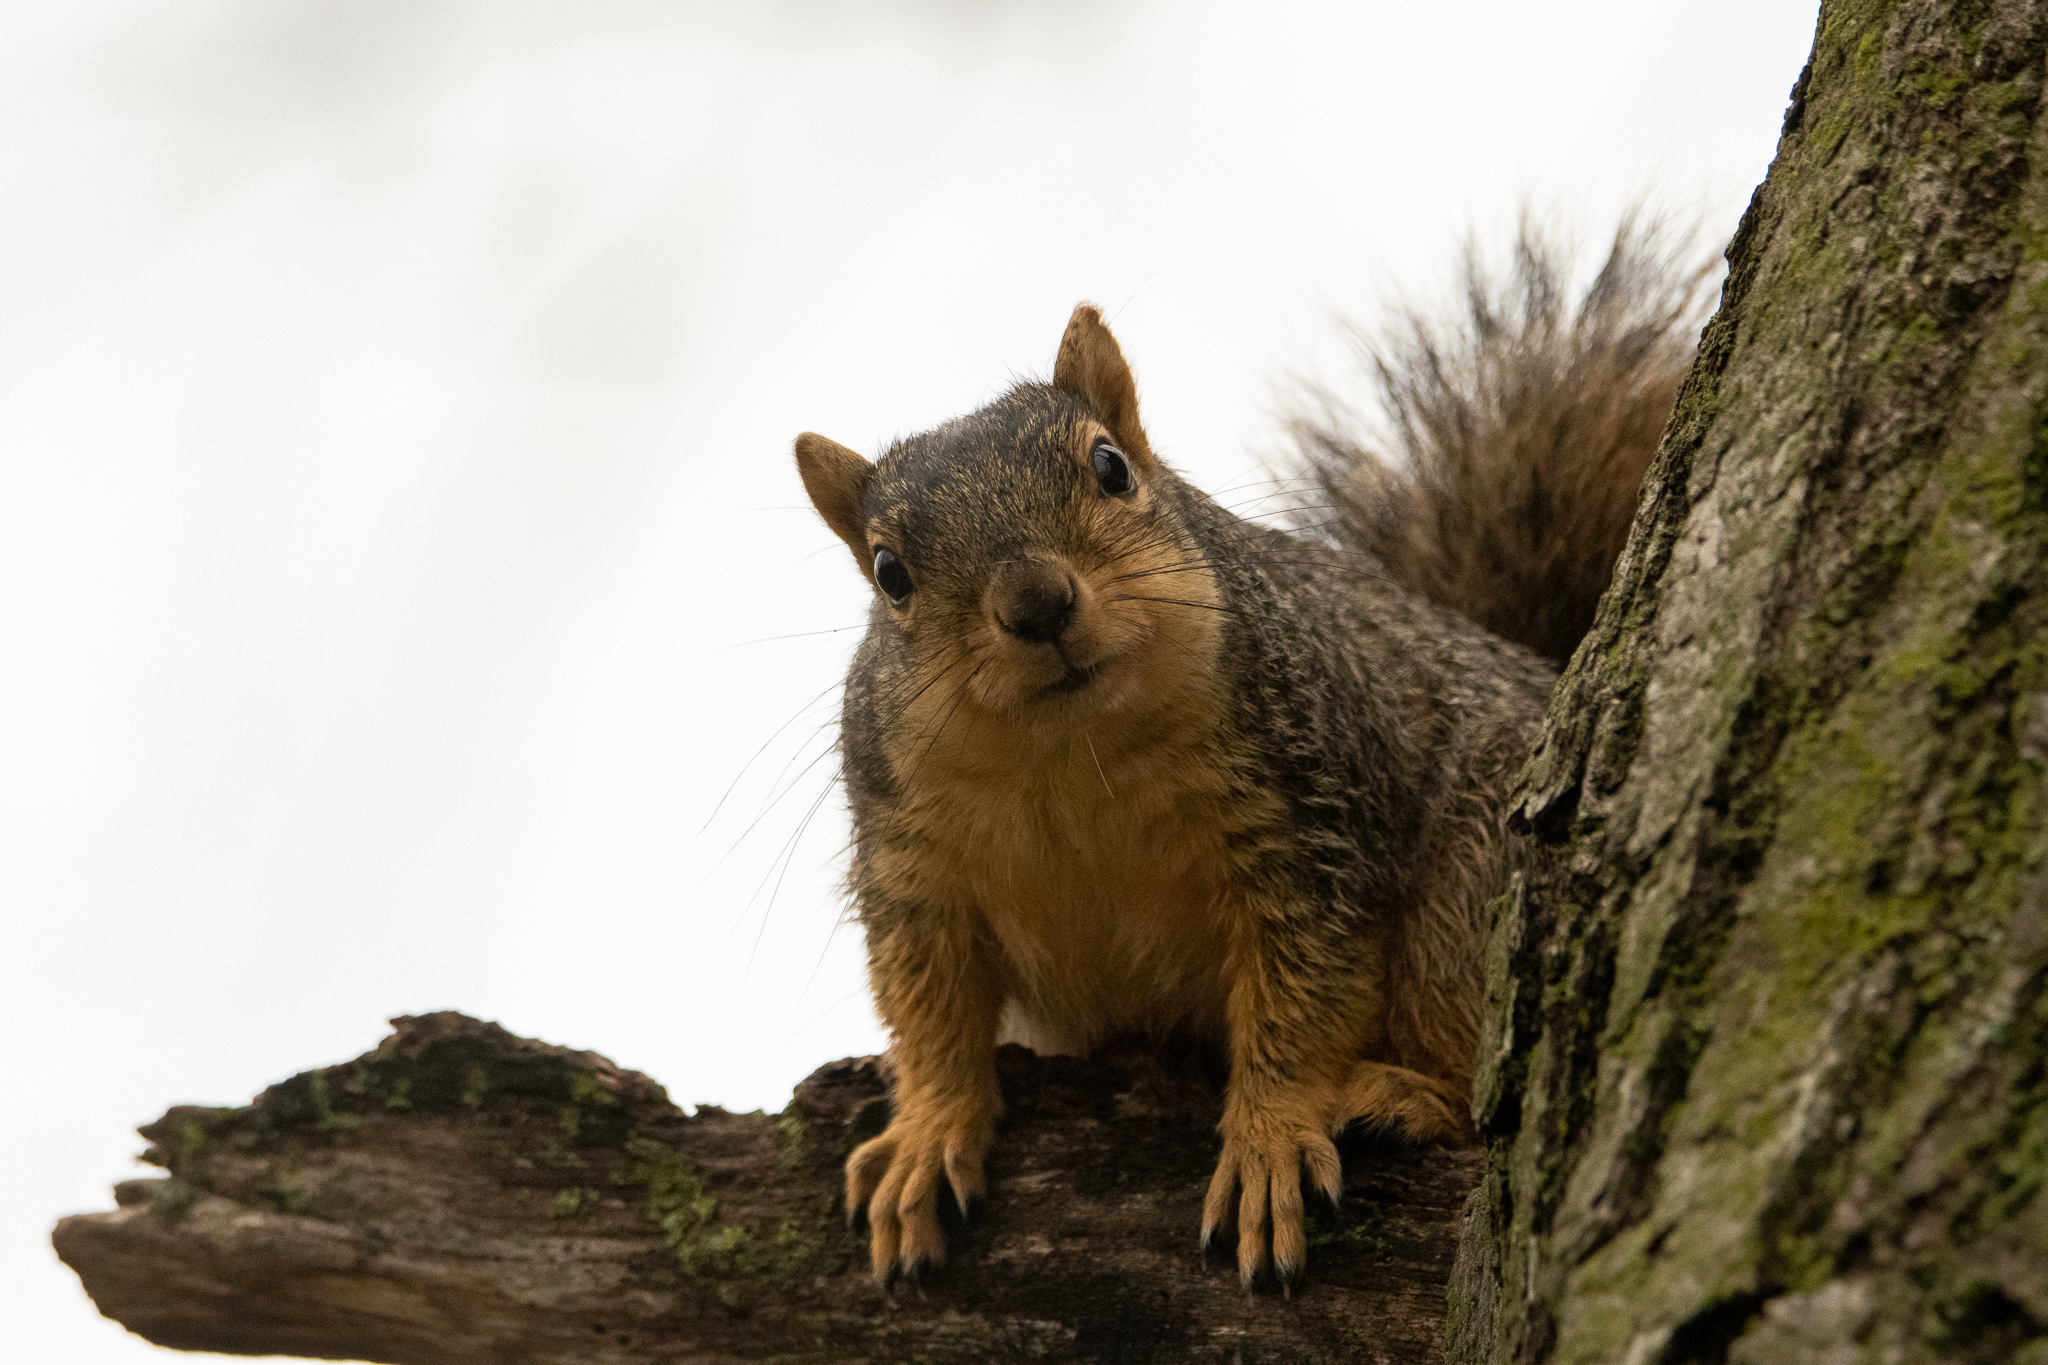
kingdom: Animalia
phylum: Chordata
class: Mammalia
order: Rodentia
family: Sciuridae
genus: Sciurus
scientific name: Sciurus niger
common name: Fox squirrel
